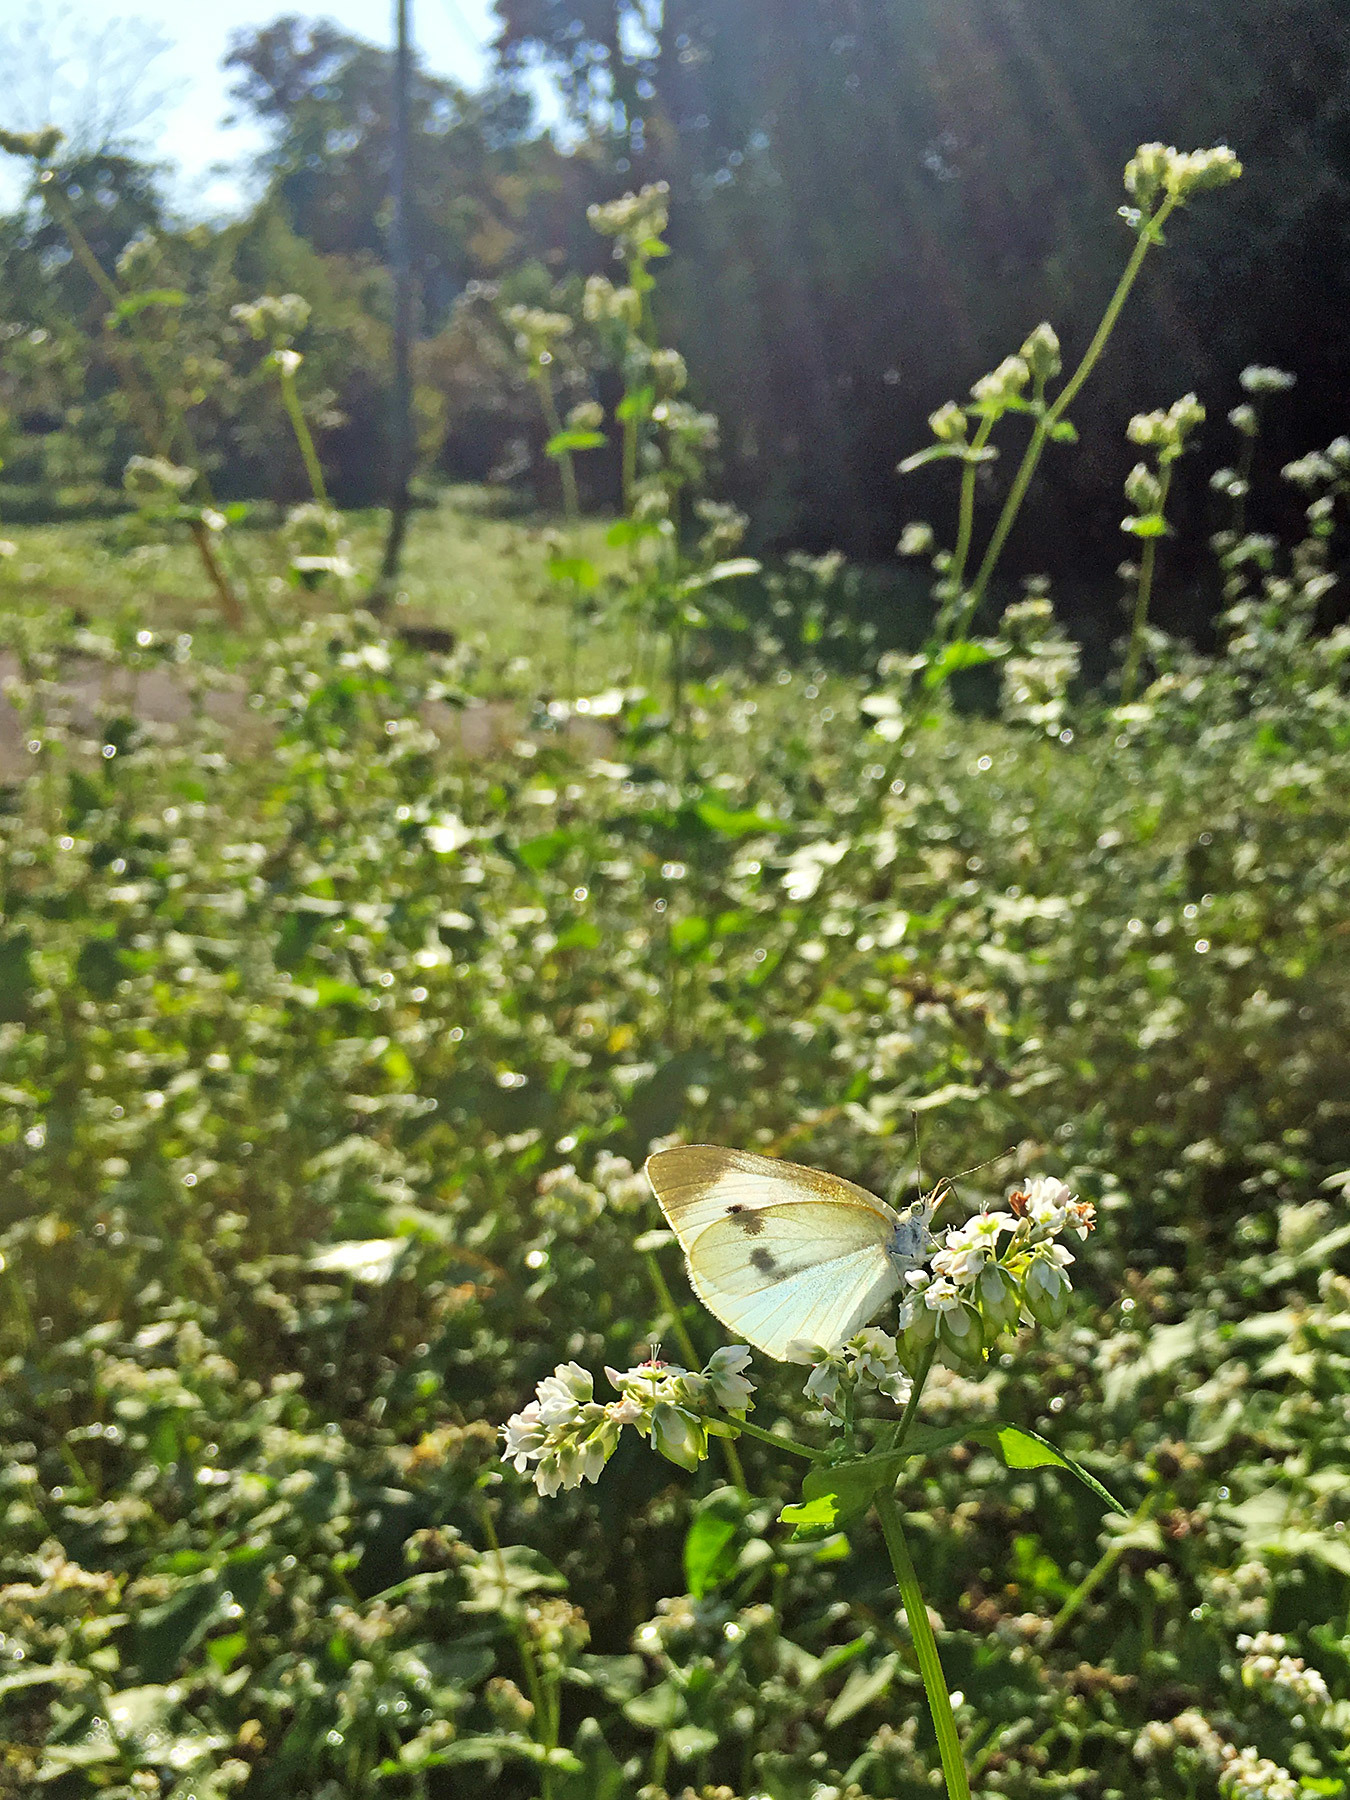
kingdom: Animalia
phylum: Arthropoda
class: Insecta
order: Lepidoptera
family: Pieridae
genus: Pieris
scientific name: Pieris rapae
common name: Small white
